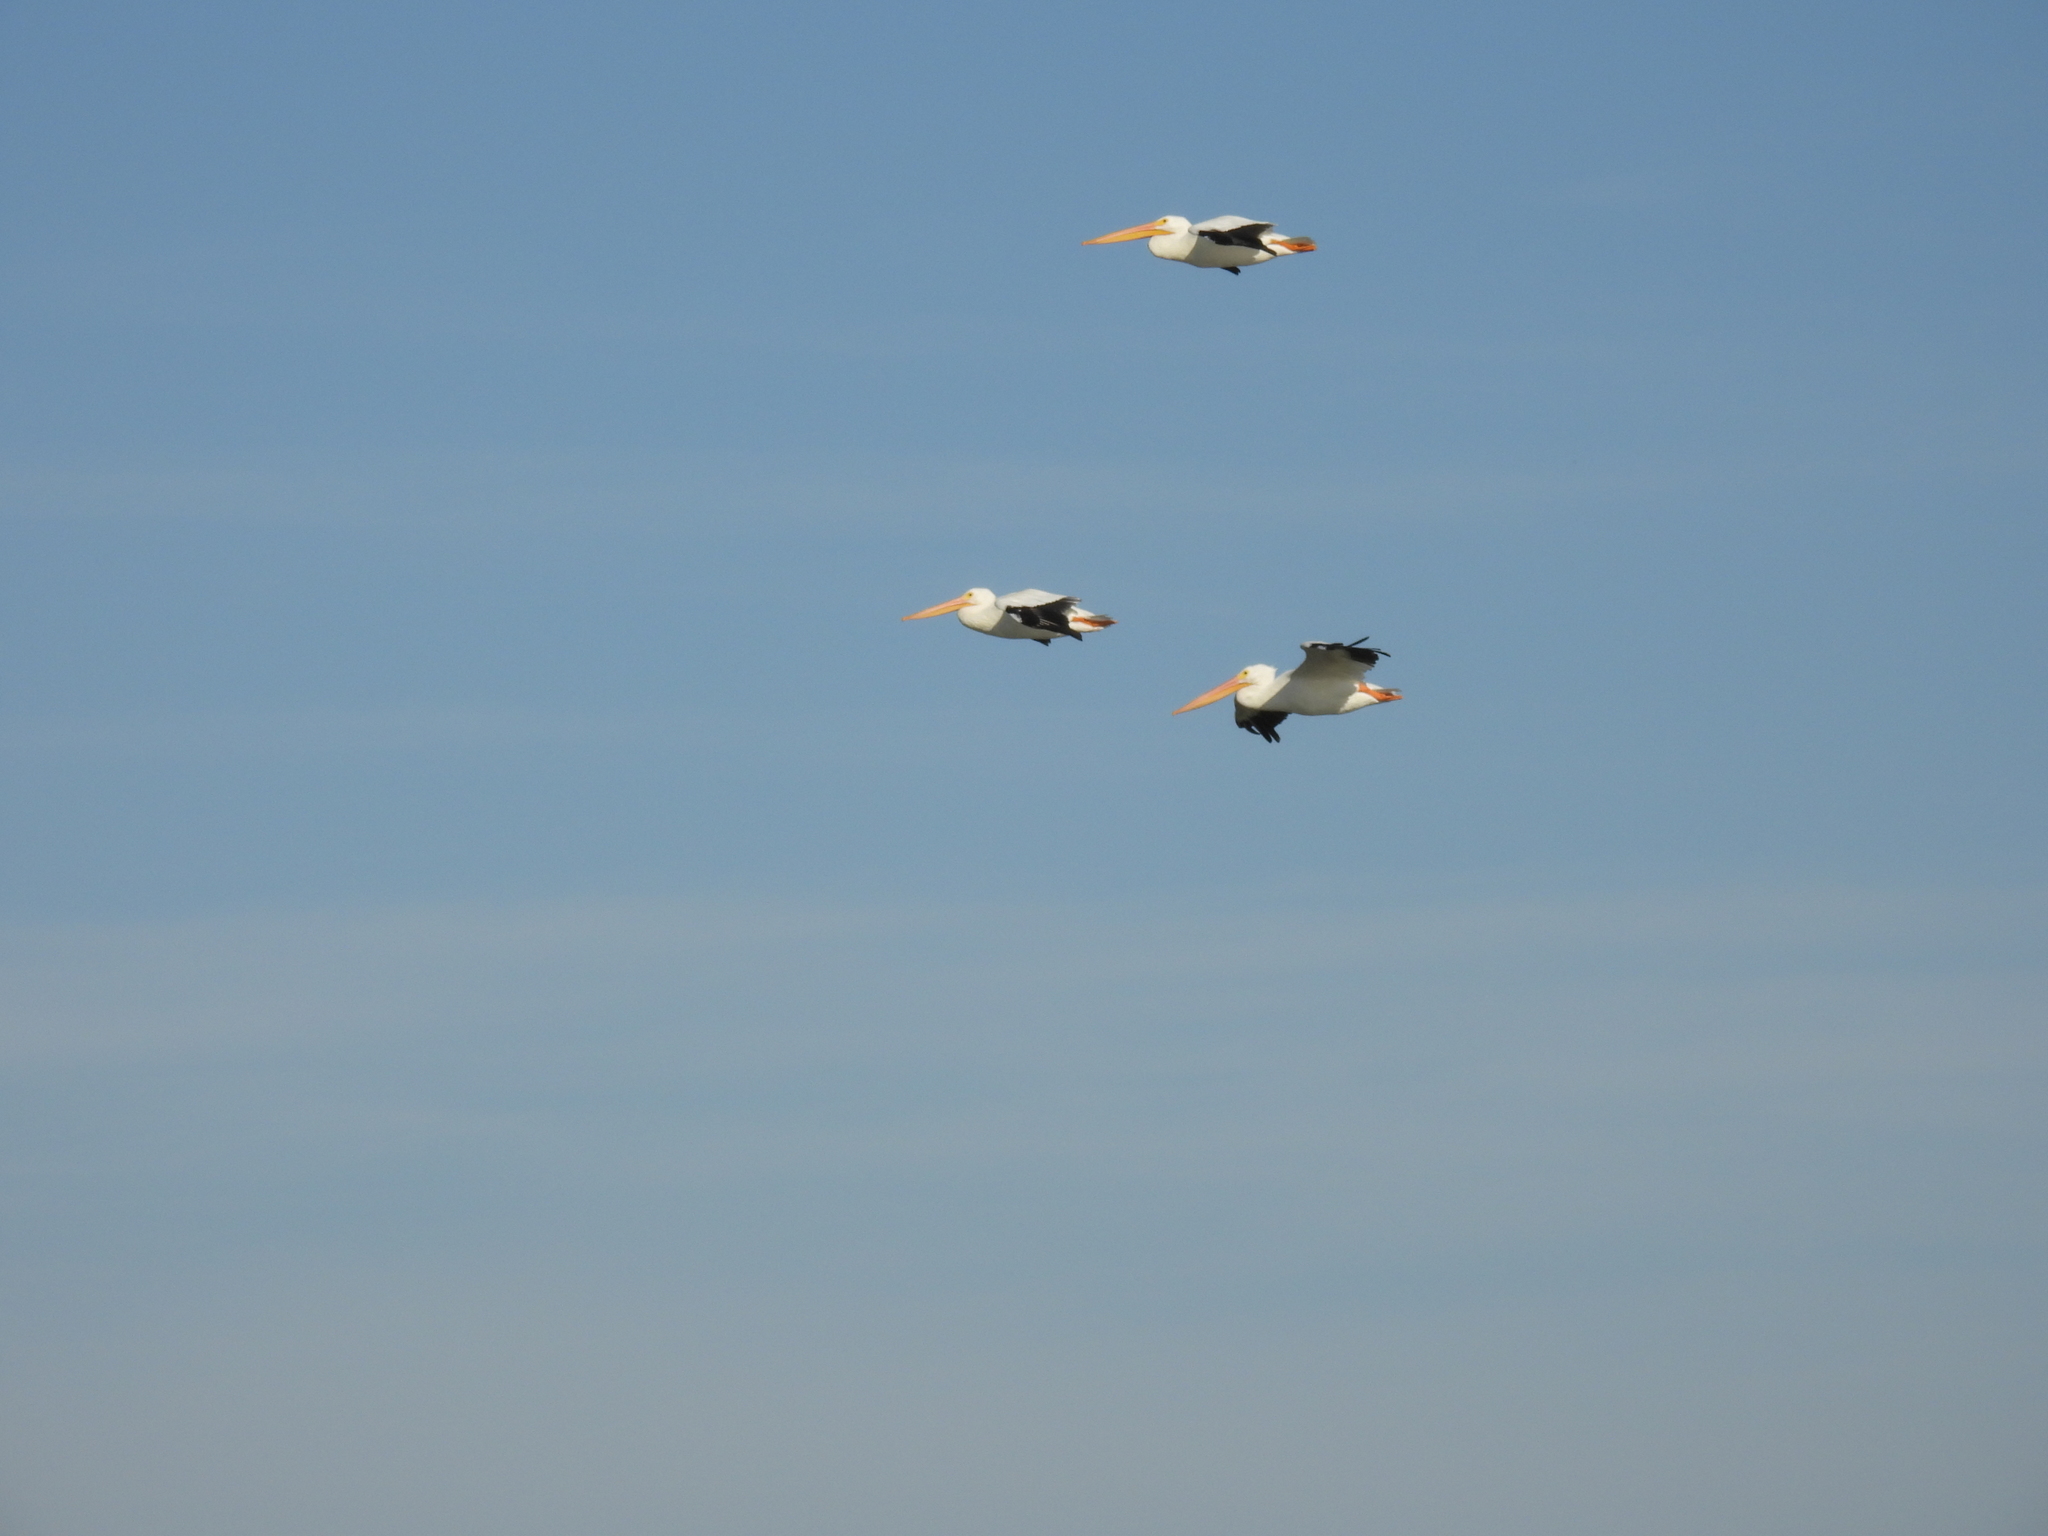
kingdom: Animalia
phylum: Chordata
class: Aves
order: Pelecaniformes
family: Pelecanidae
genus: Pelecanus
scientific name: Pelecanus erythrorhynchos
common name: American white pelican
